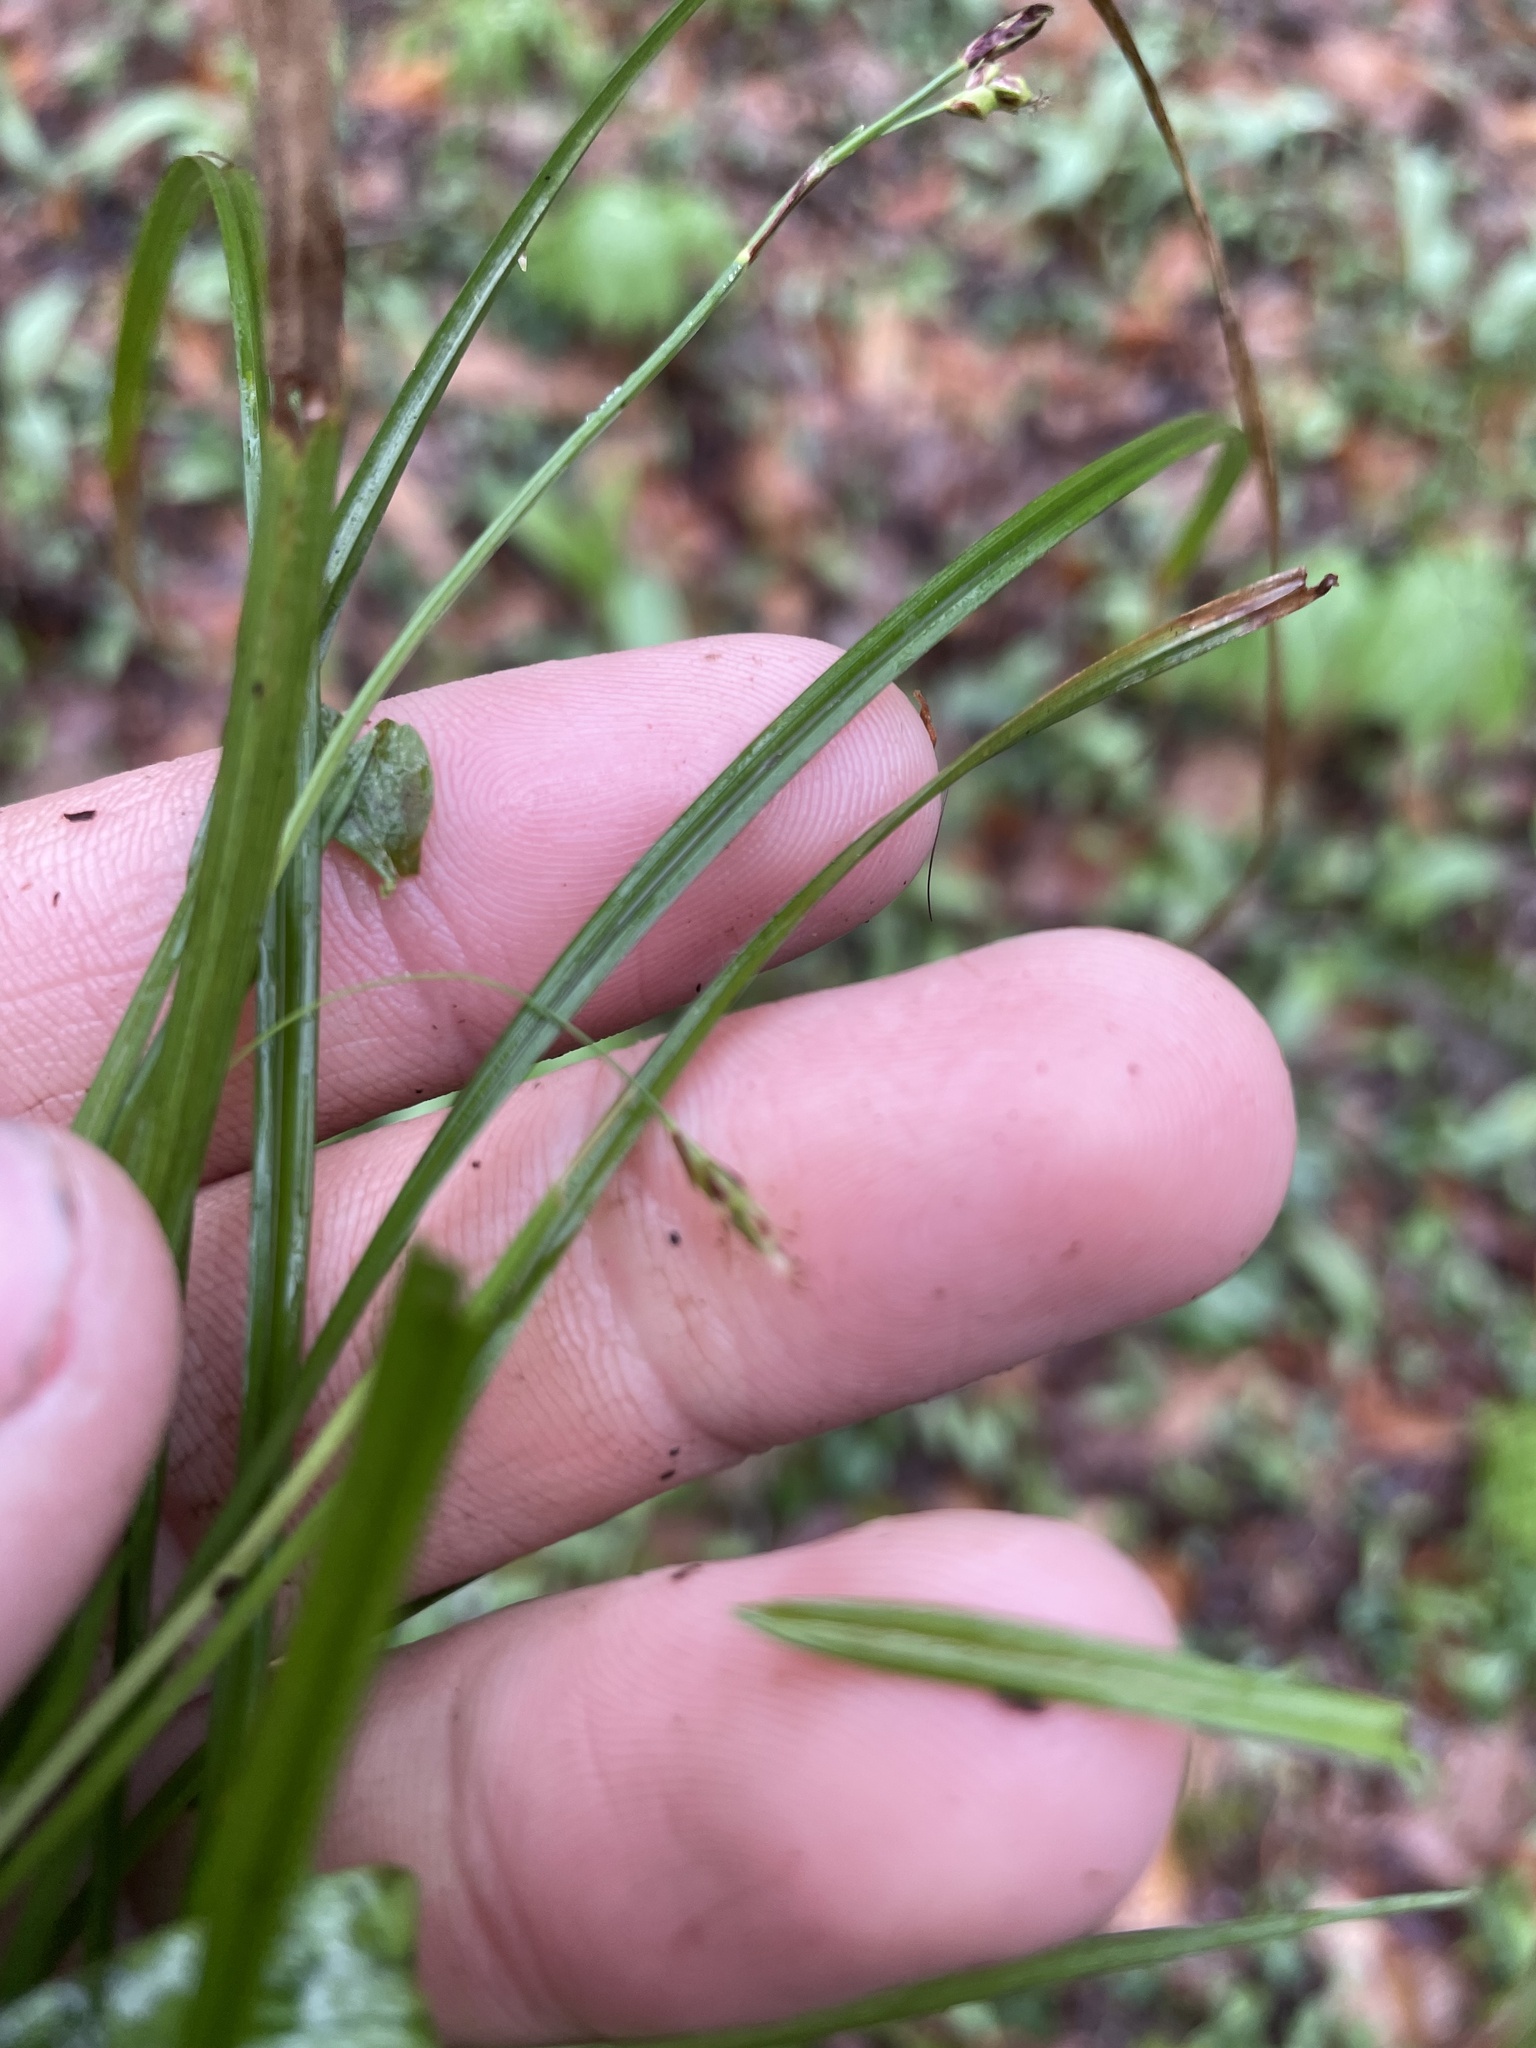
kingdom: Plantae
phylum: Tracheophyta
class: Liliopsida
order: Poales
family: Cyperaceae
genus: Carex
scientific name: Carex austrocaroliniana
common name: Tarheel sedge
